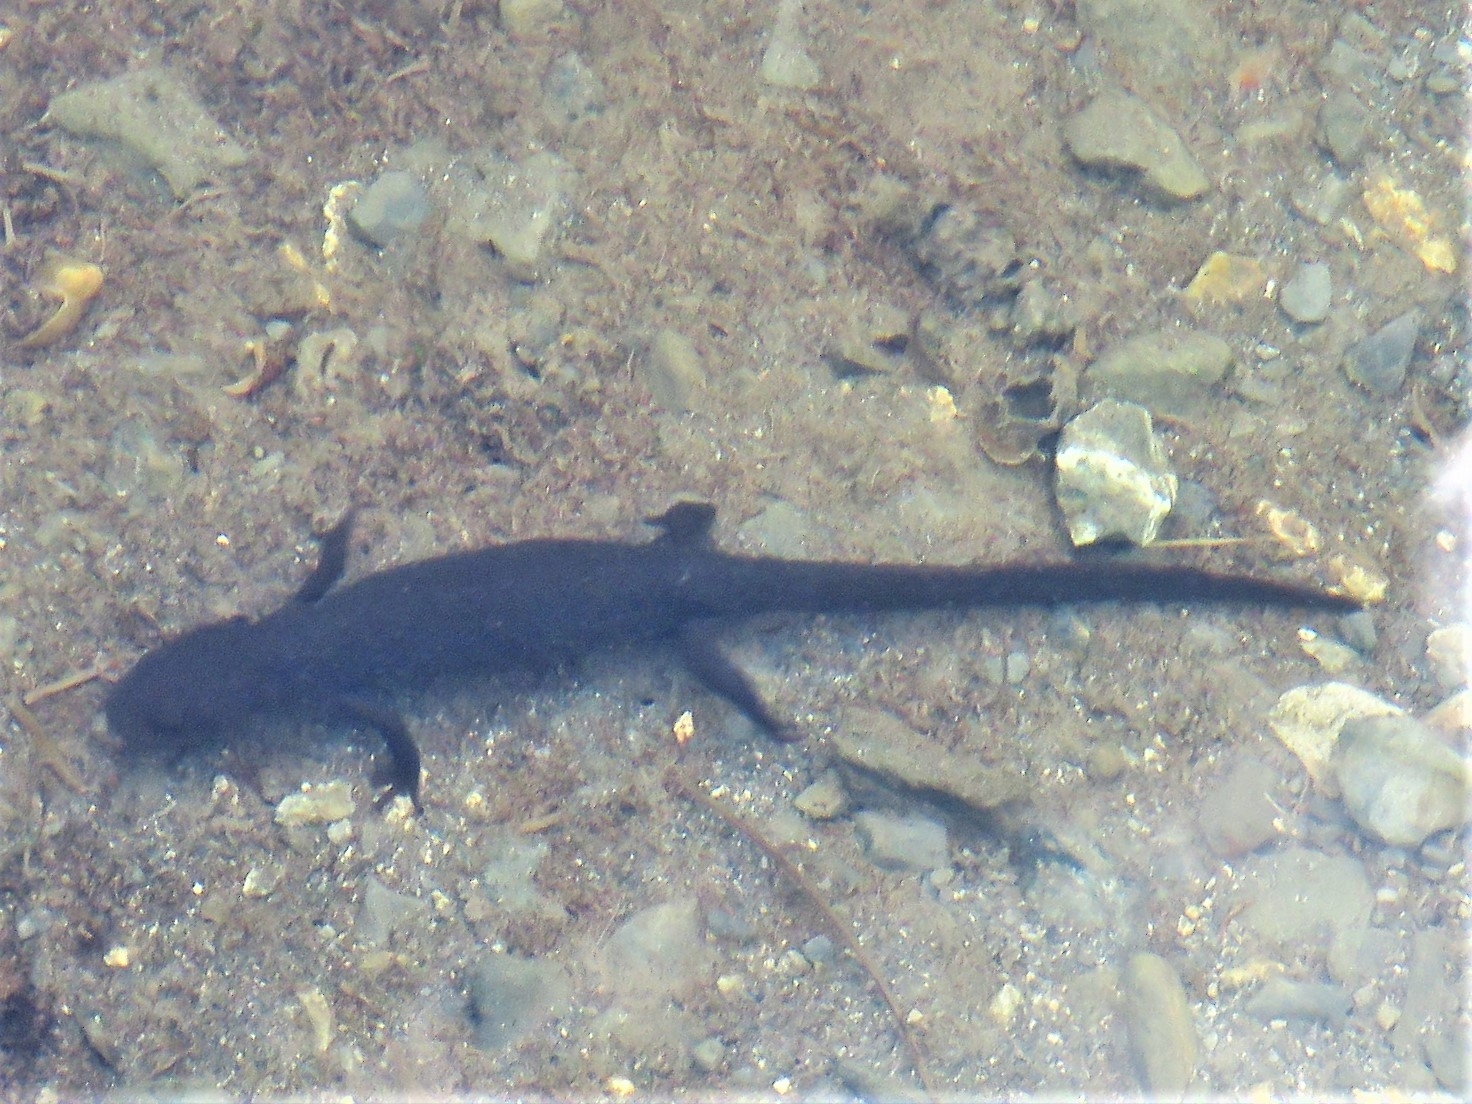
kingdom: Animalia
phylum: Chordata
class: Amphibia
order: Caudata
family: Salamandridae
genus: Calotriton
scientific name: Calotriton asper
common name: Pyrenean brook salamander
